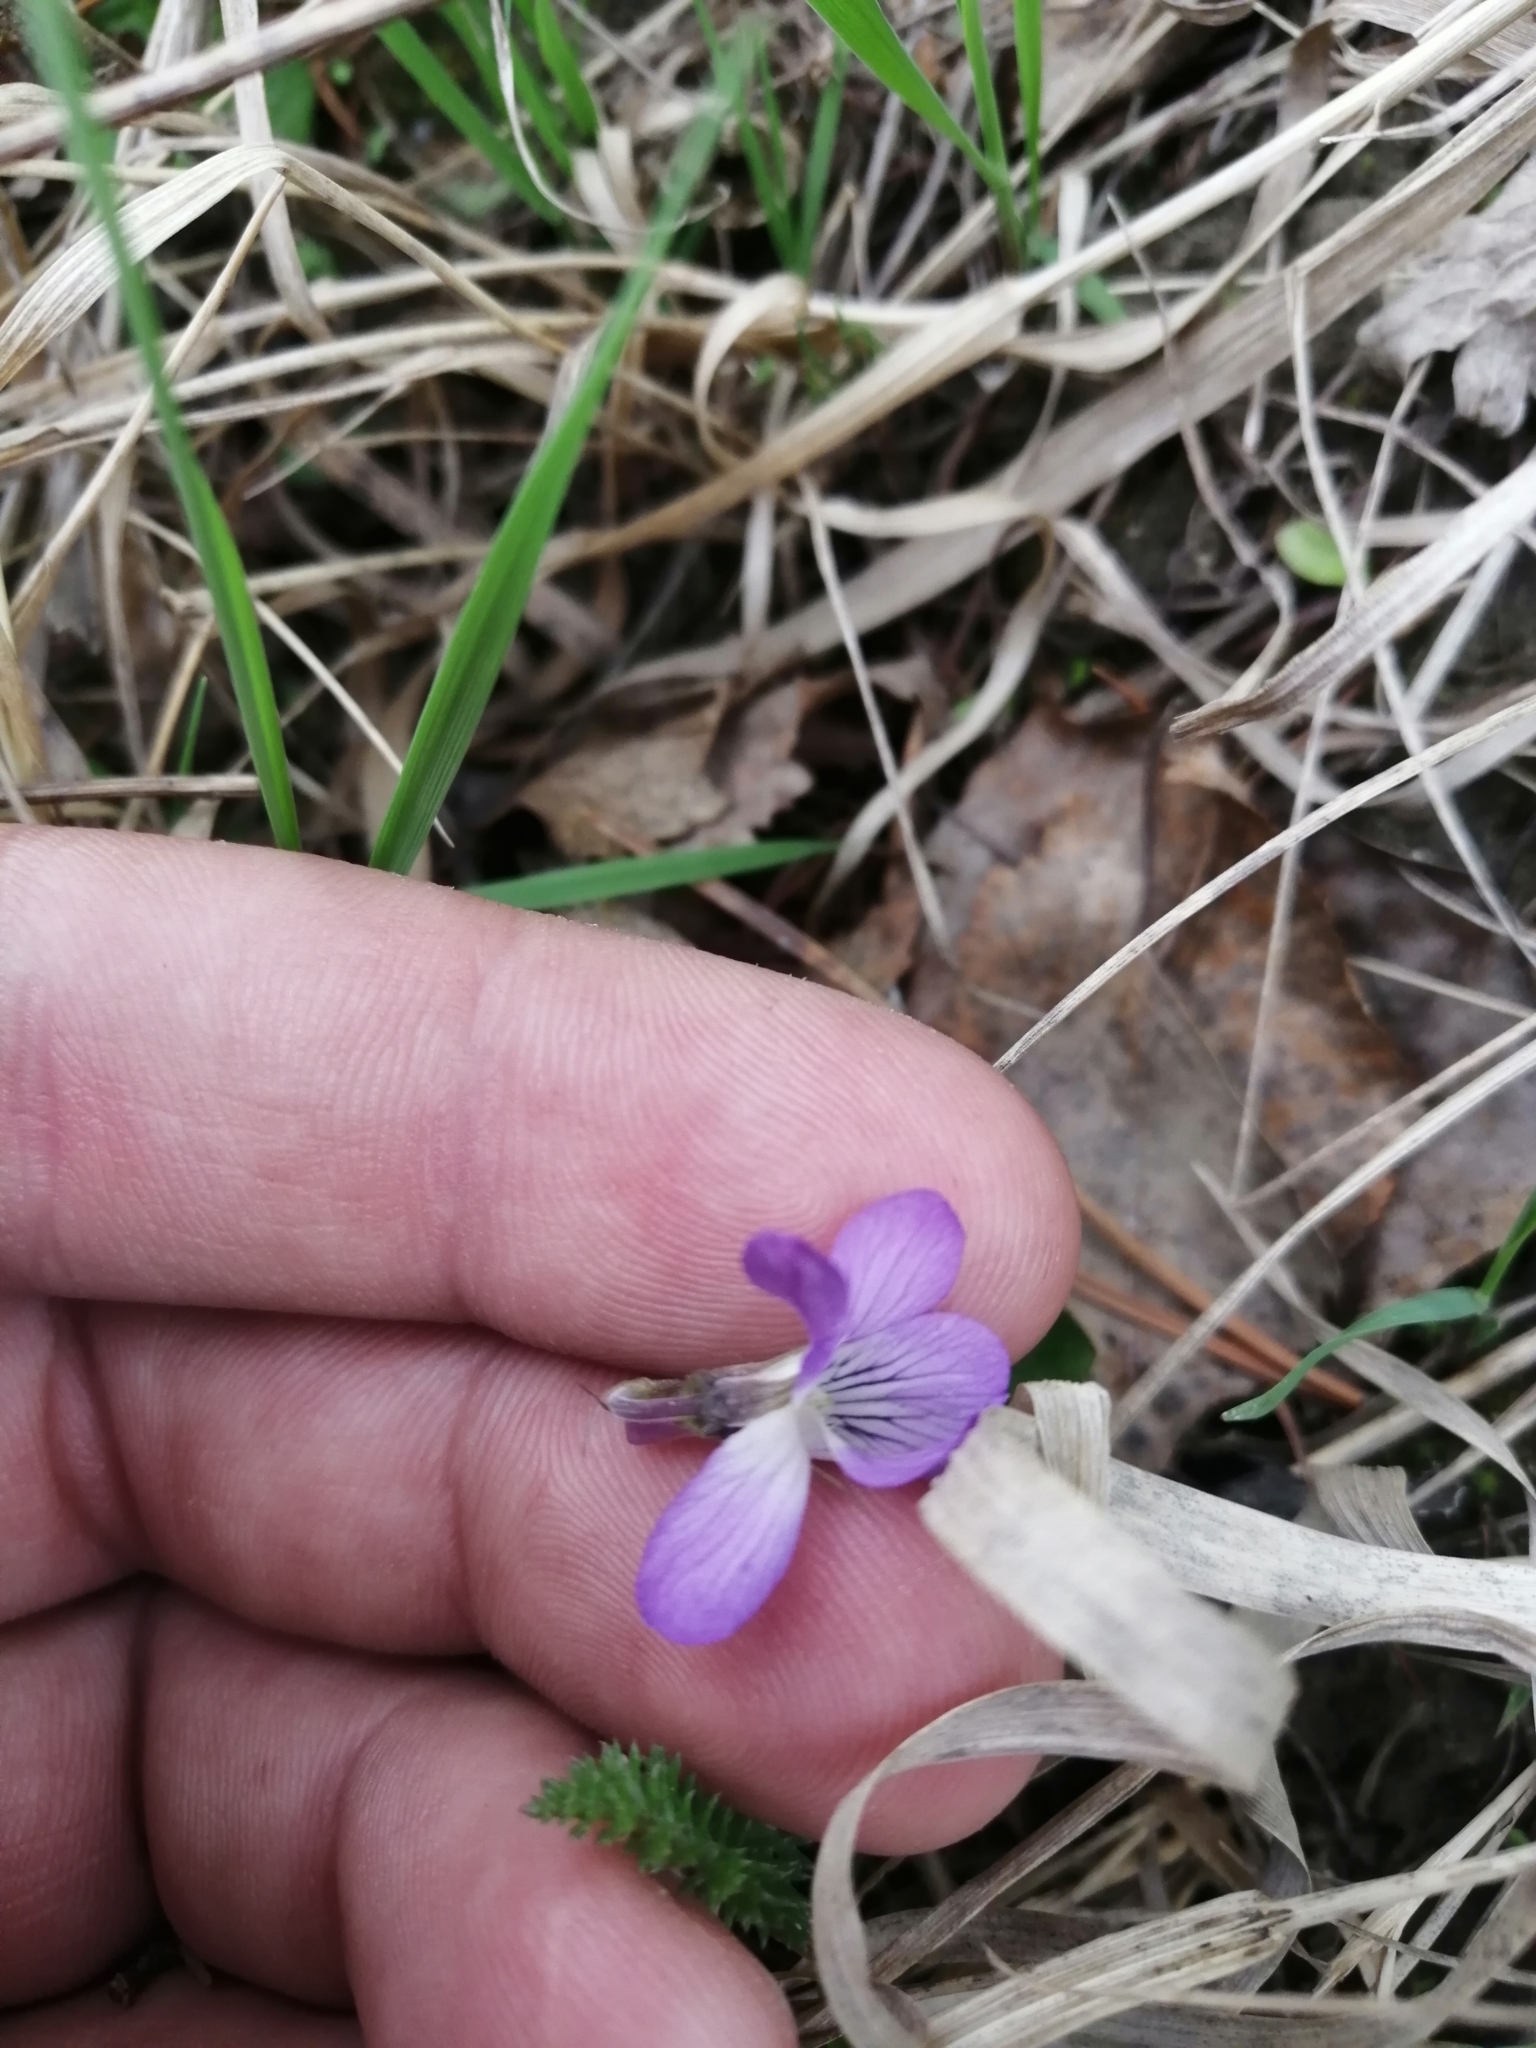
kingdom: Plantae
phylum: Tracheophyta
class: Magnoliopsida
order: Malpighiales
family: Violaceae
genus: Viola
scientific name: Viola rupestris
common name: Teesdale violet
